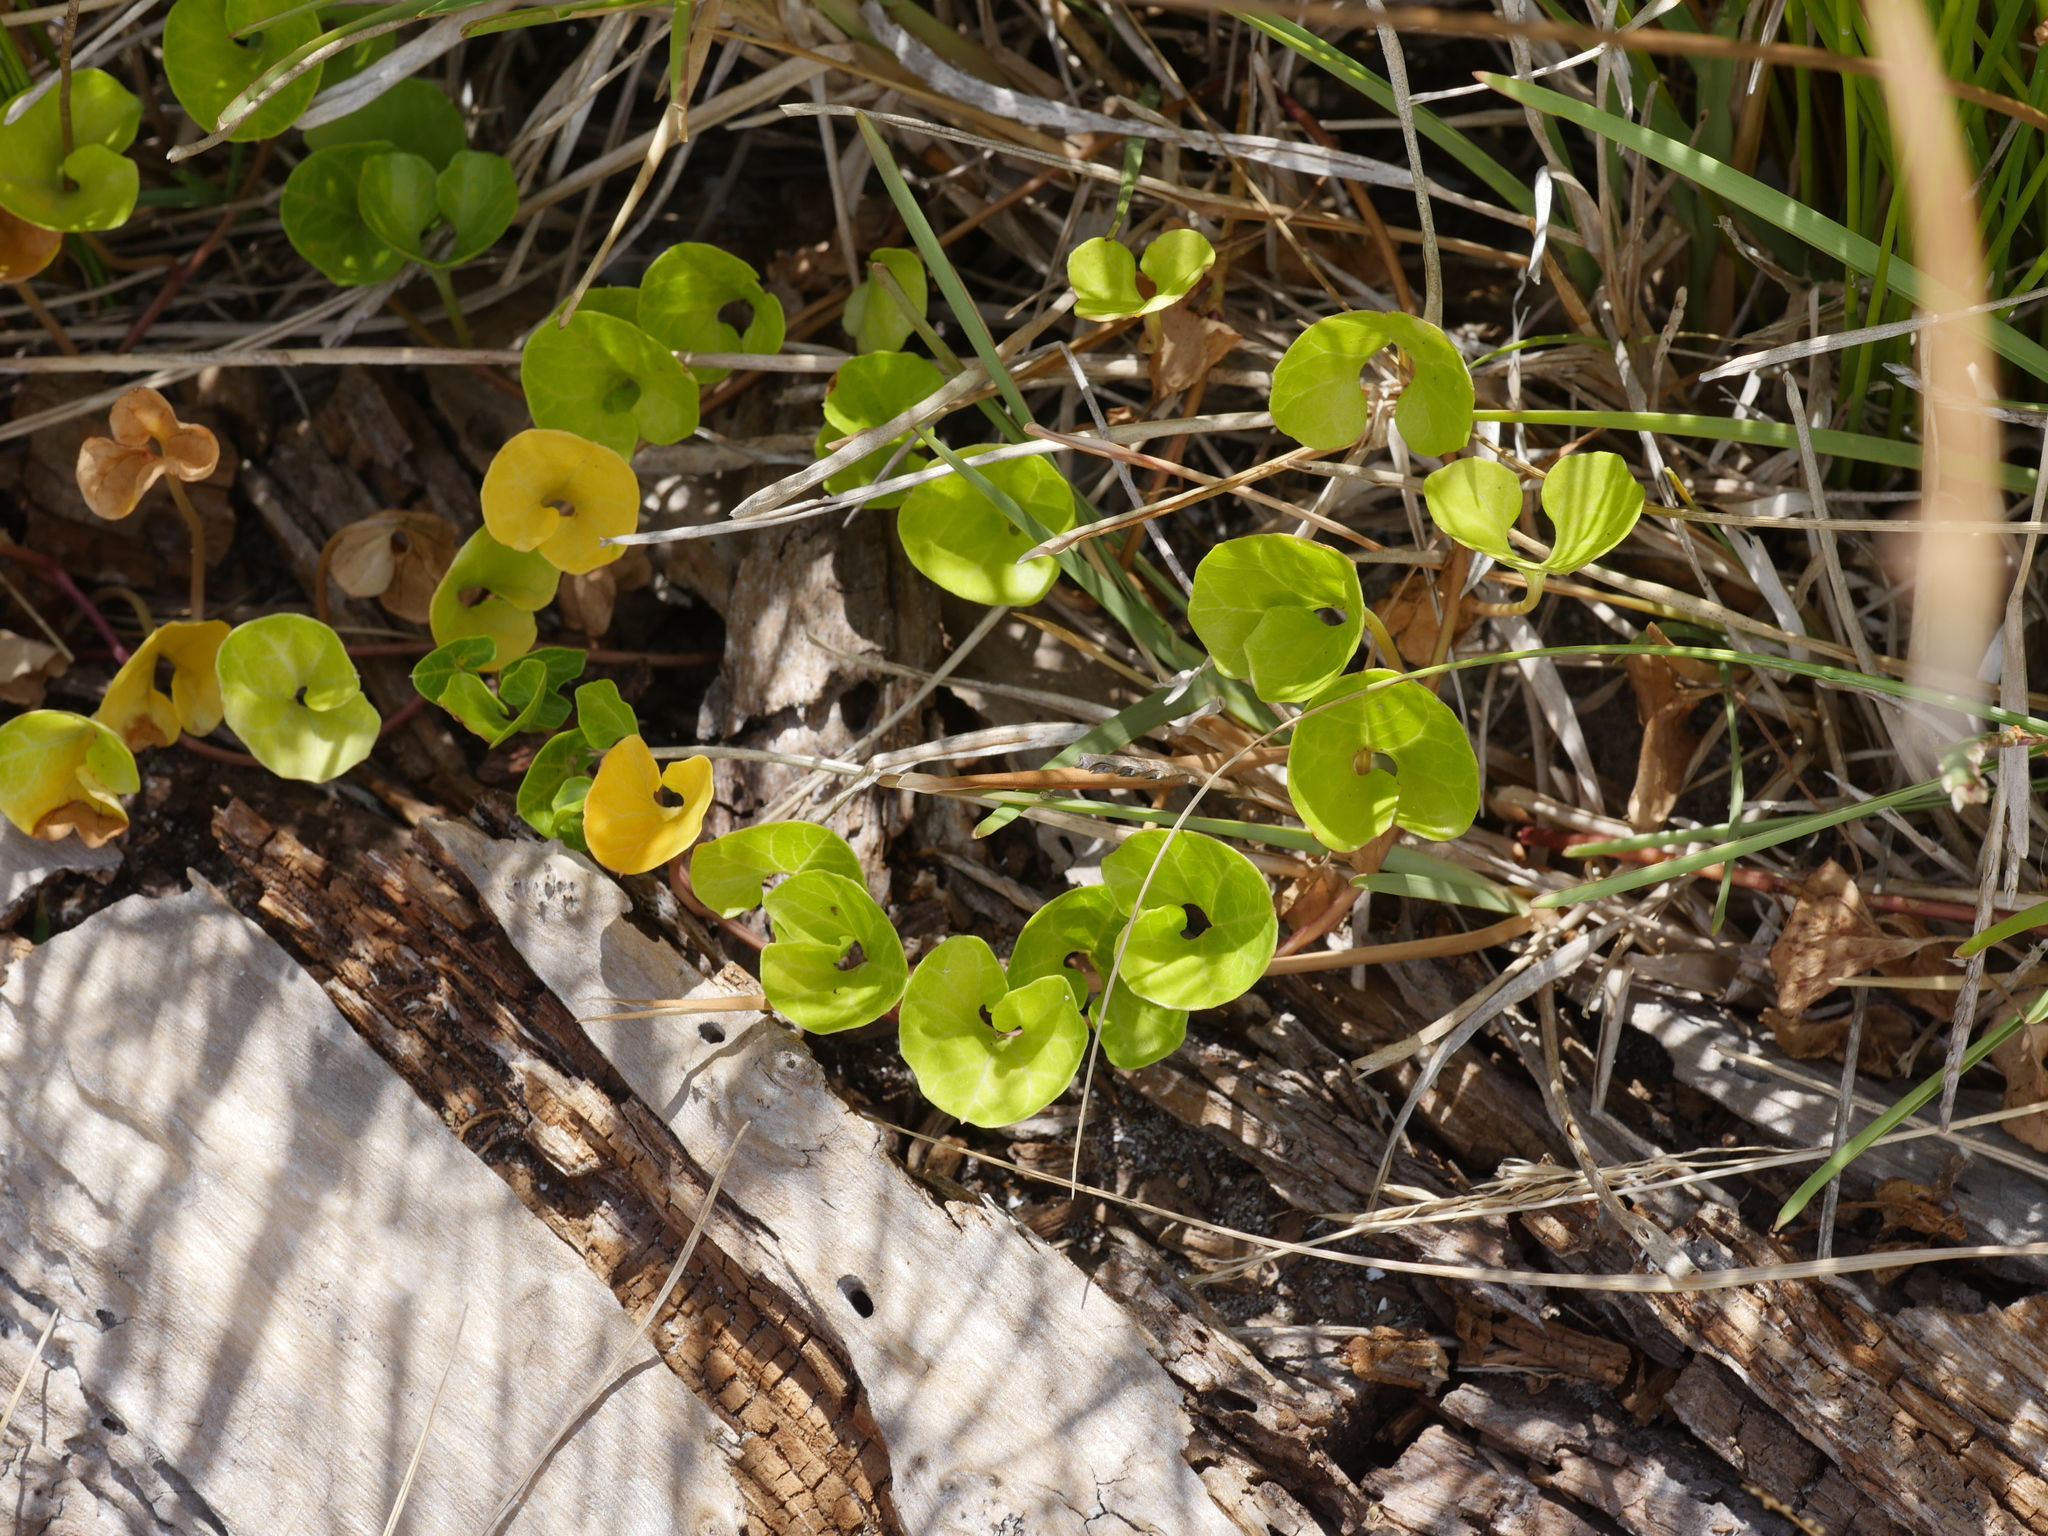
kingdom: Plantae
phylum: Tracheophyta
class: Magnoliopsida
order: Solanales
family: Convolvulaceae
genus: Calystegia
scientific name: Calystegia soldanella
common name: Sea bindweed
